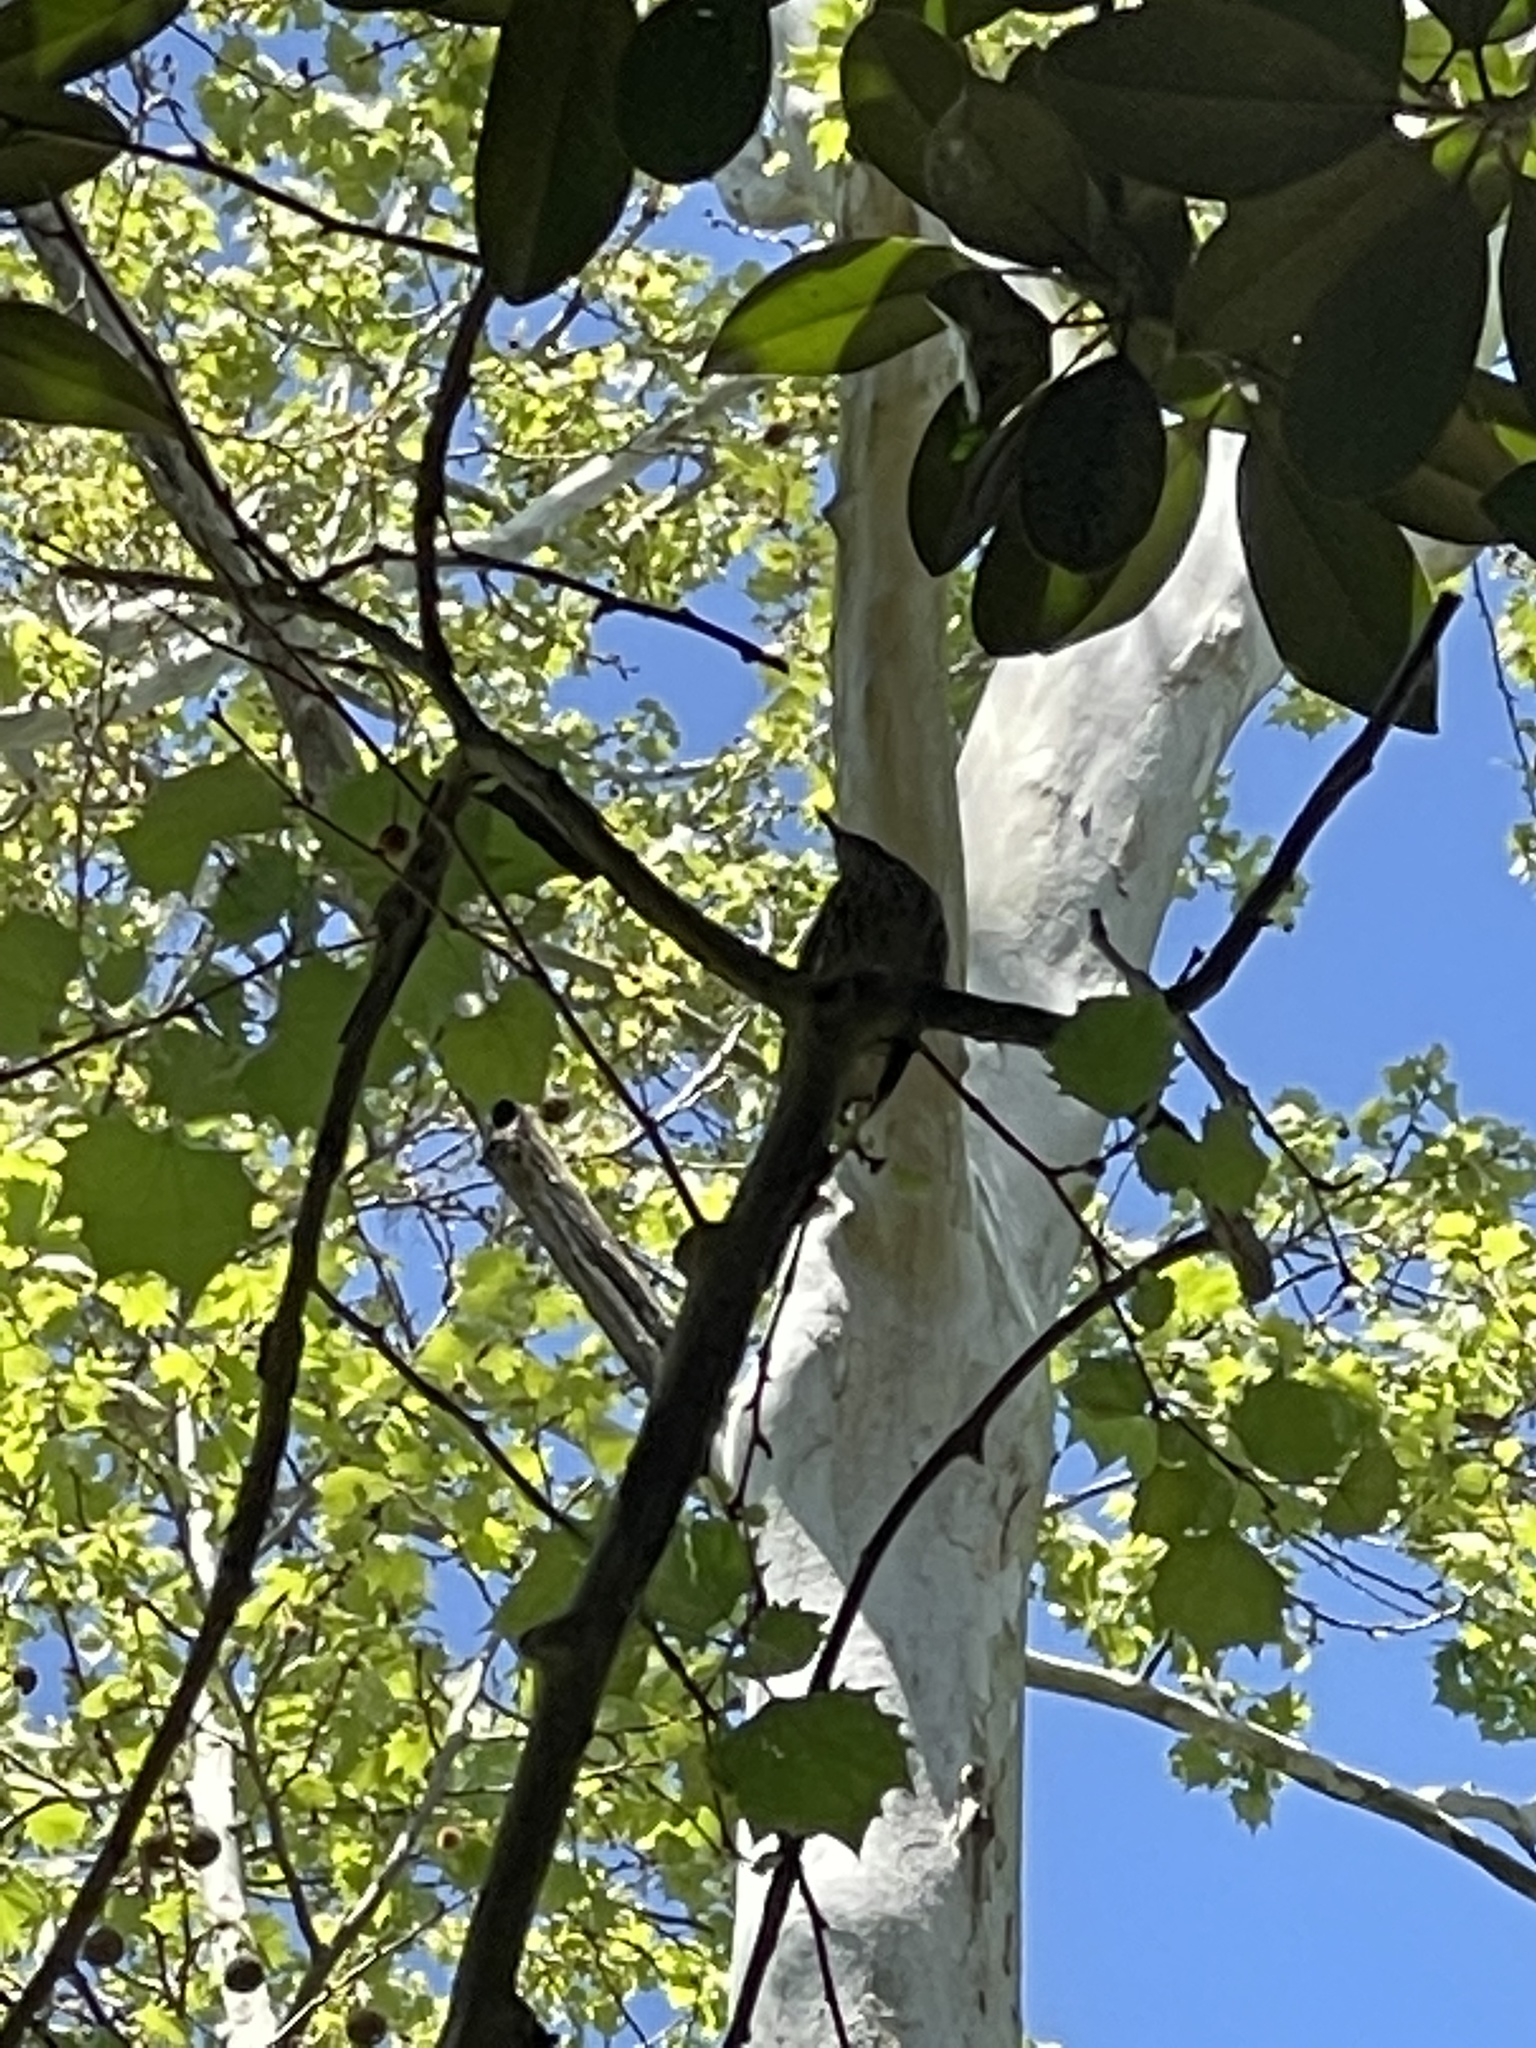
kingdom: Animalia
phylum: Chordata
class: Aves
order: Passeriformes
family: Parulidae
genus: Mniotilta
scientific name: Mniotilta varia
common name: Black-and-white warbler
